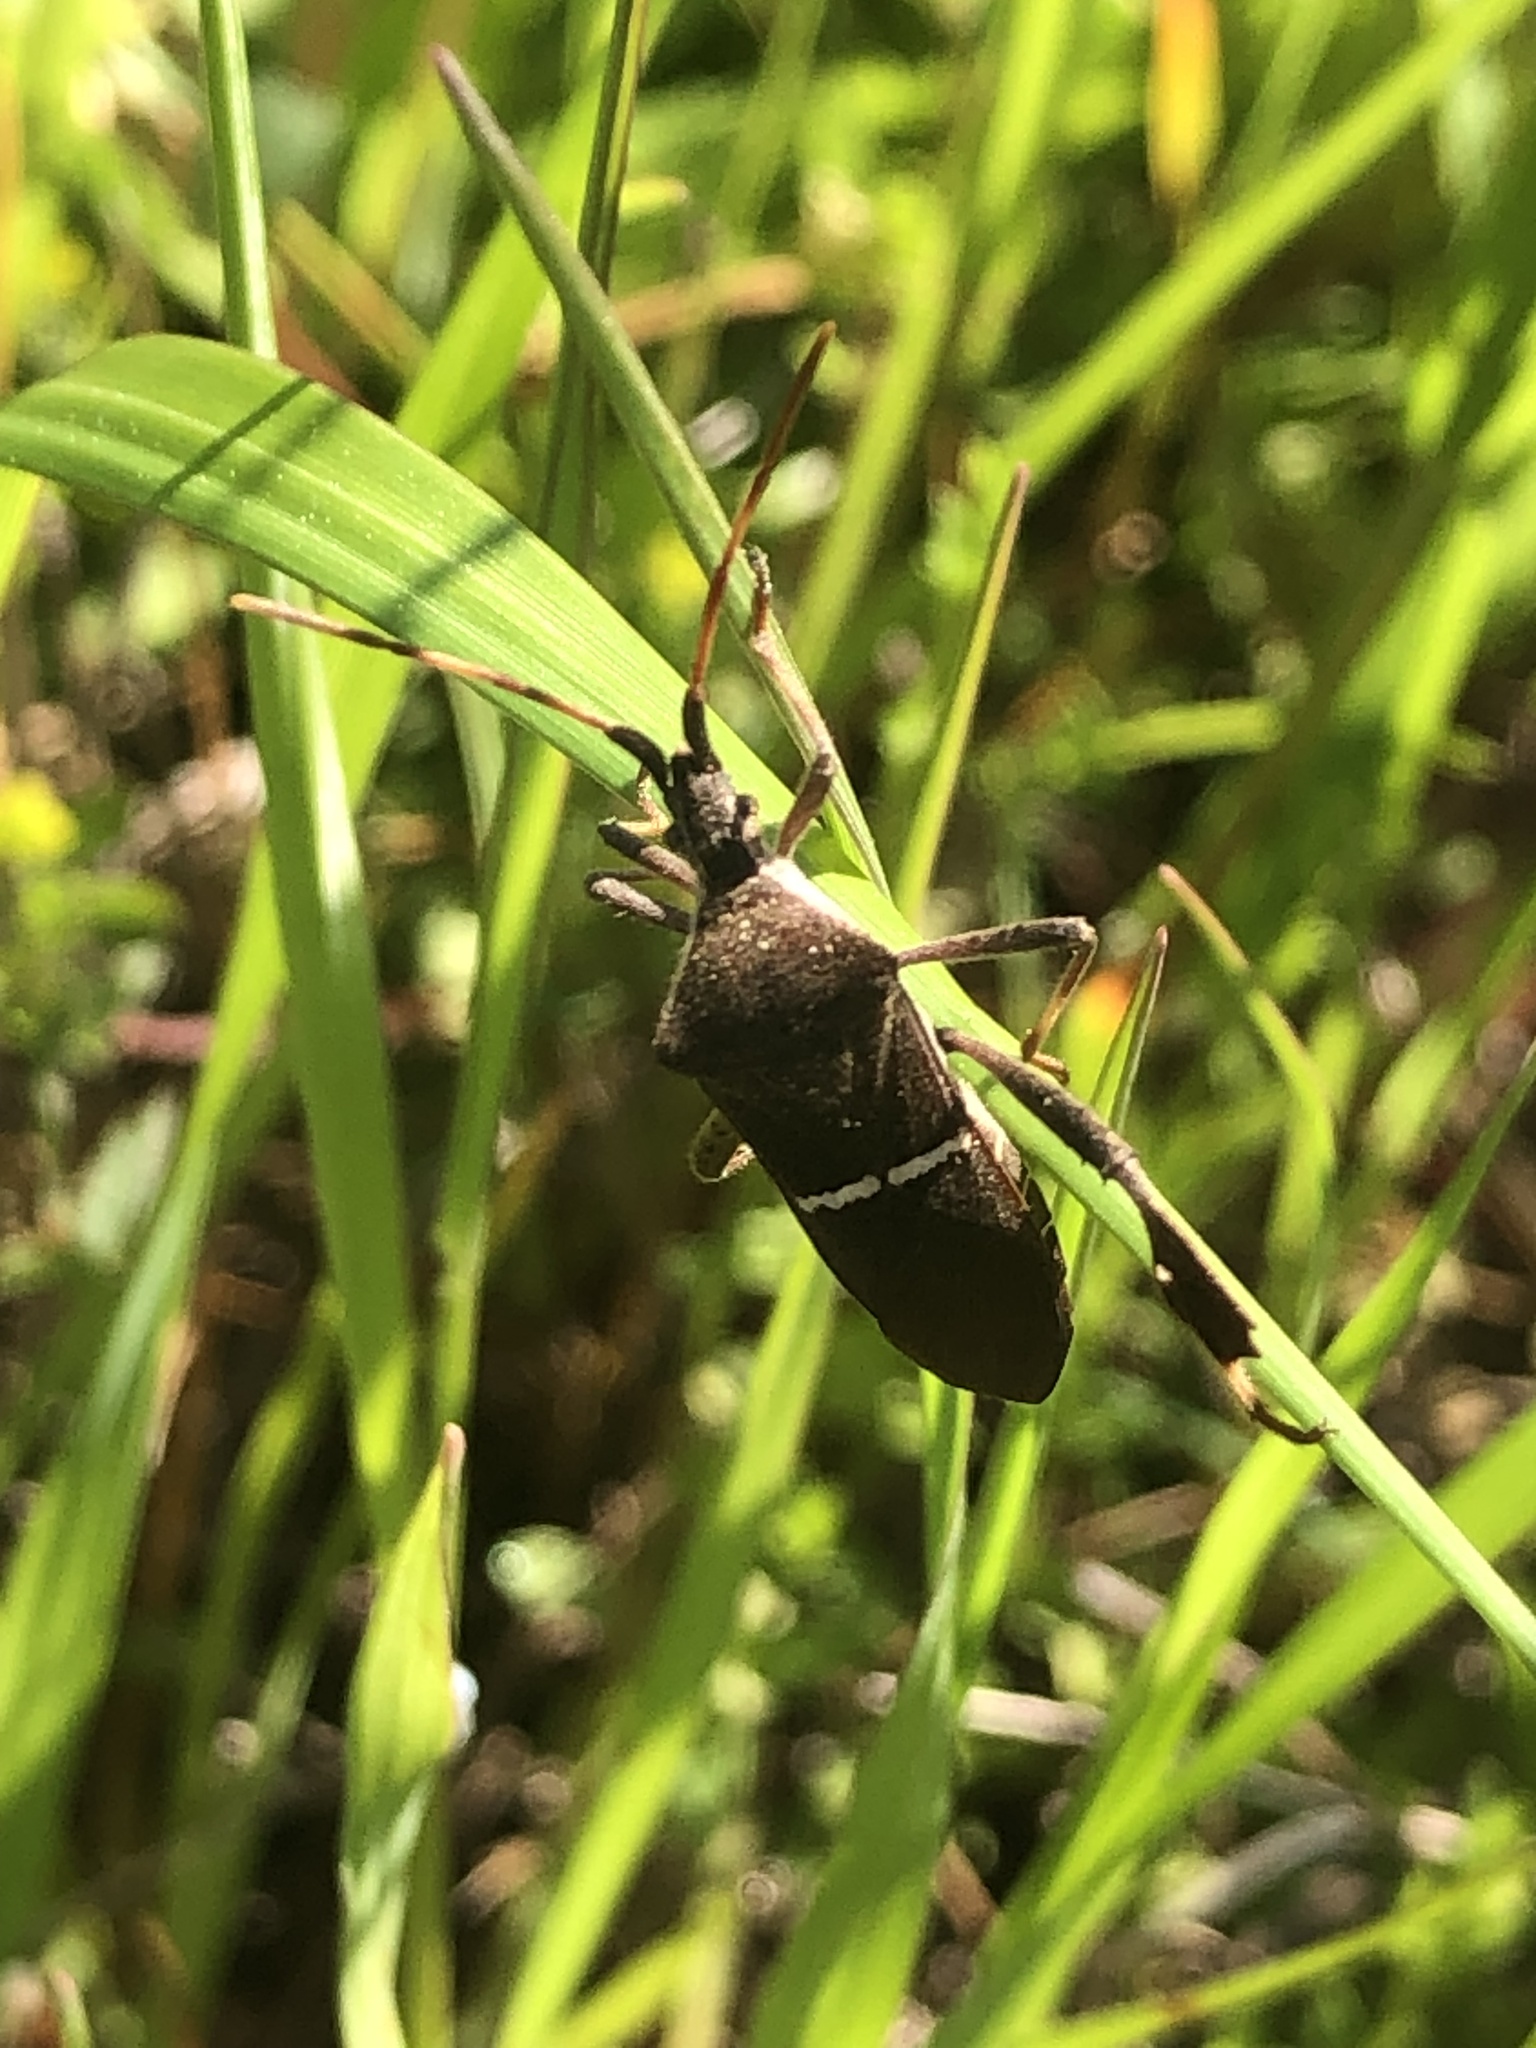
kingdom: Animalia
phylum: Arthropoda
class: Insecta
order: Hemiptera
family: Coreidae
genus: Leptoglossus
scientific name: Leptoglossus phyllopus
